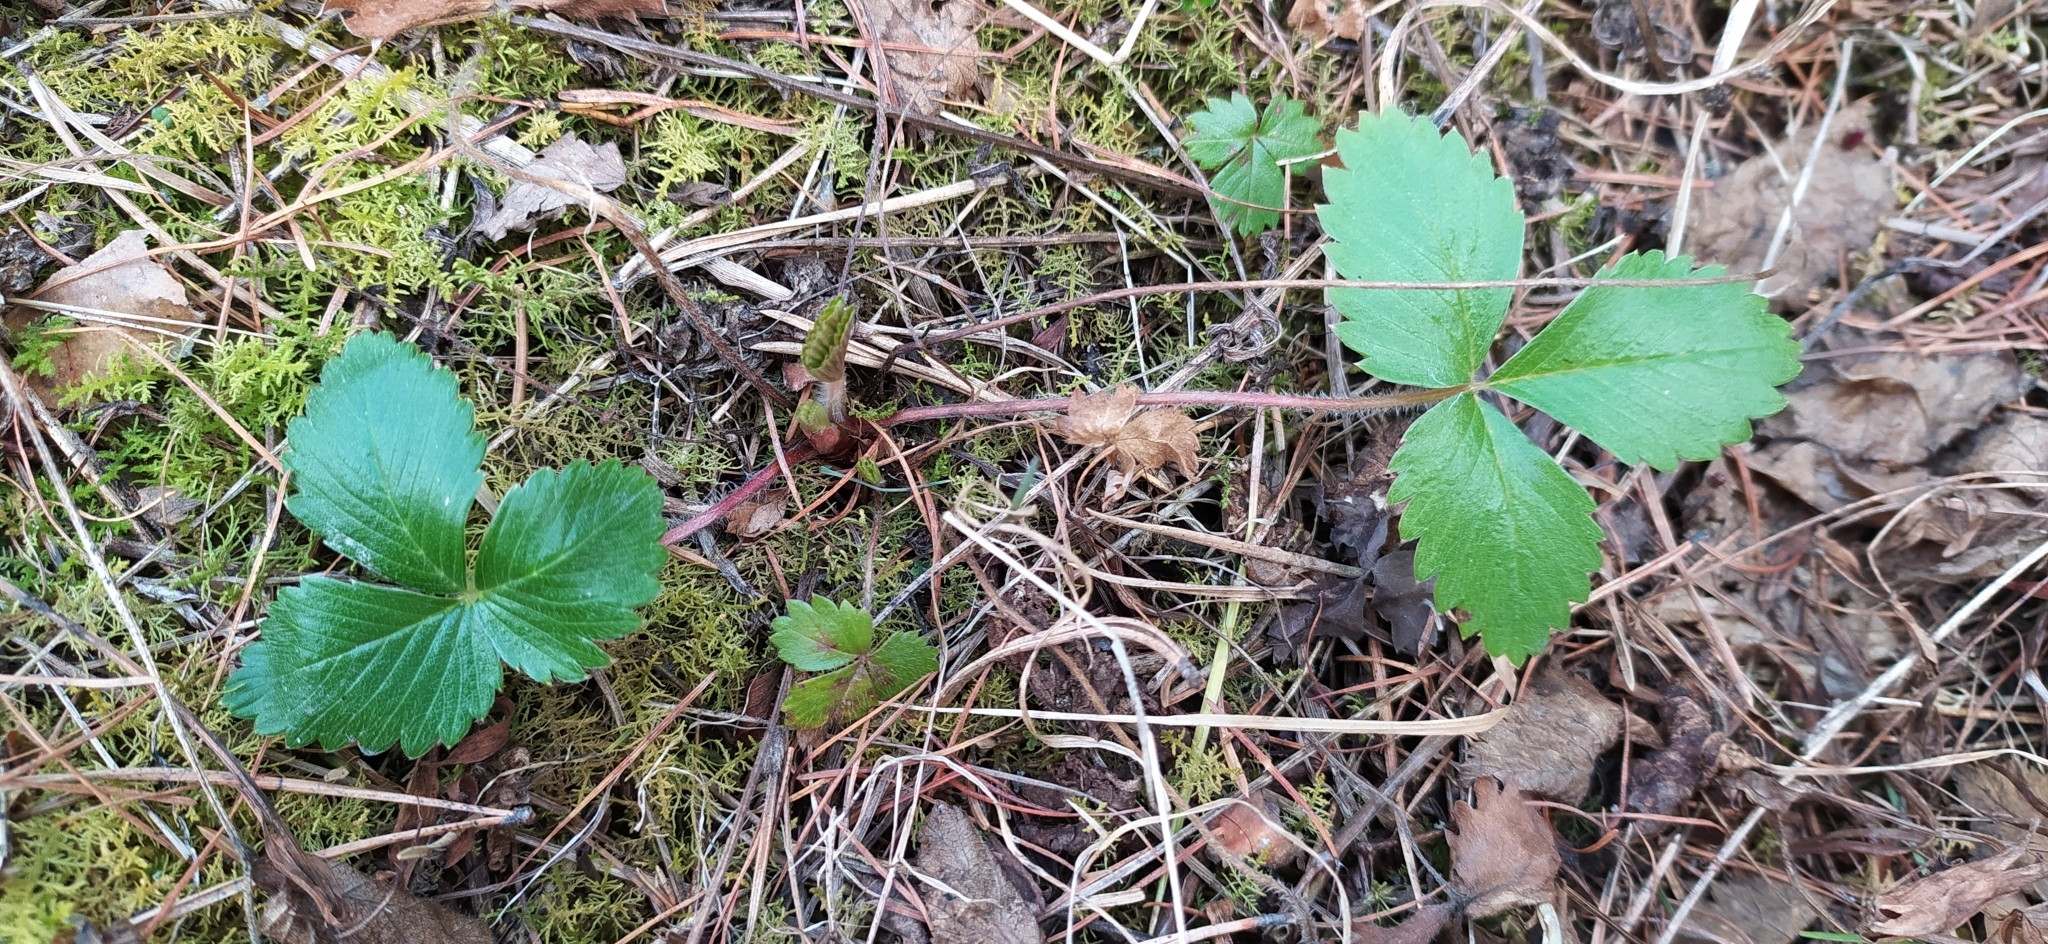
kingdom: Plantae
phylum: Tracheophyta
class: Magnoliopsida
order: Rosales
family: Rosaceae
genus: Fragaria
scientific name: Fragaria vesca
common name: Wild strawberry
